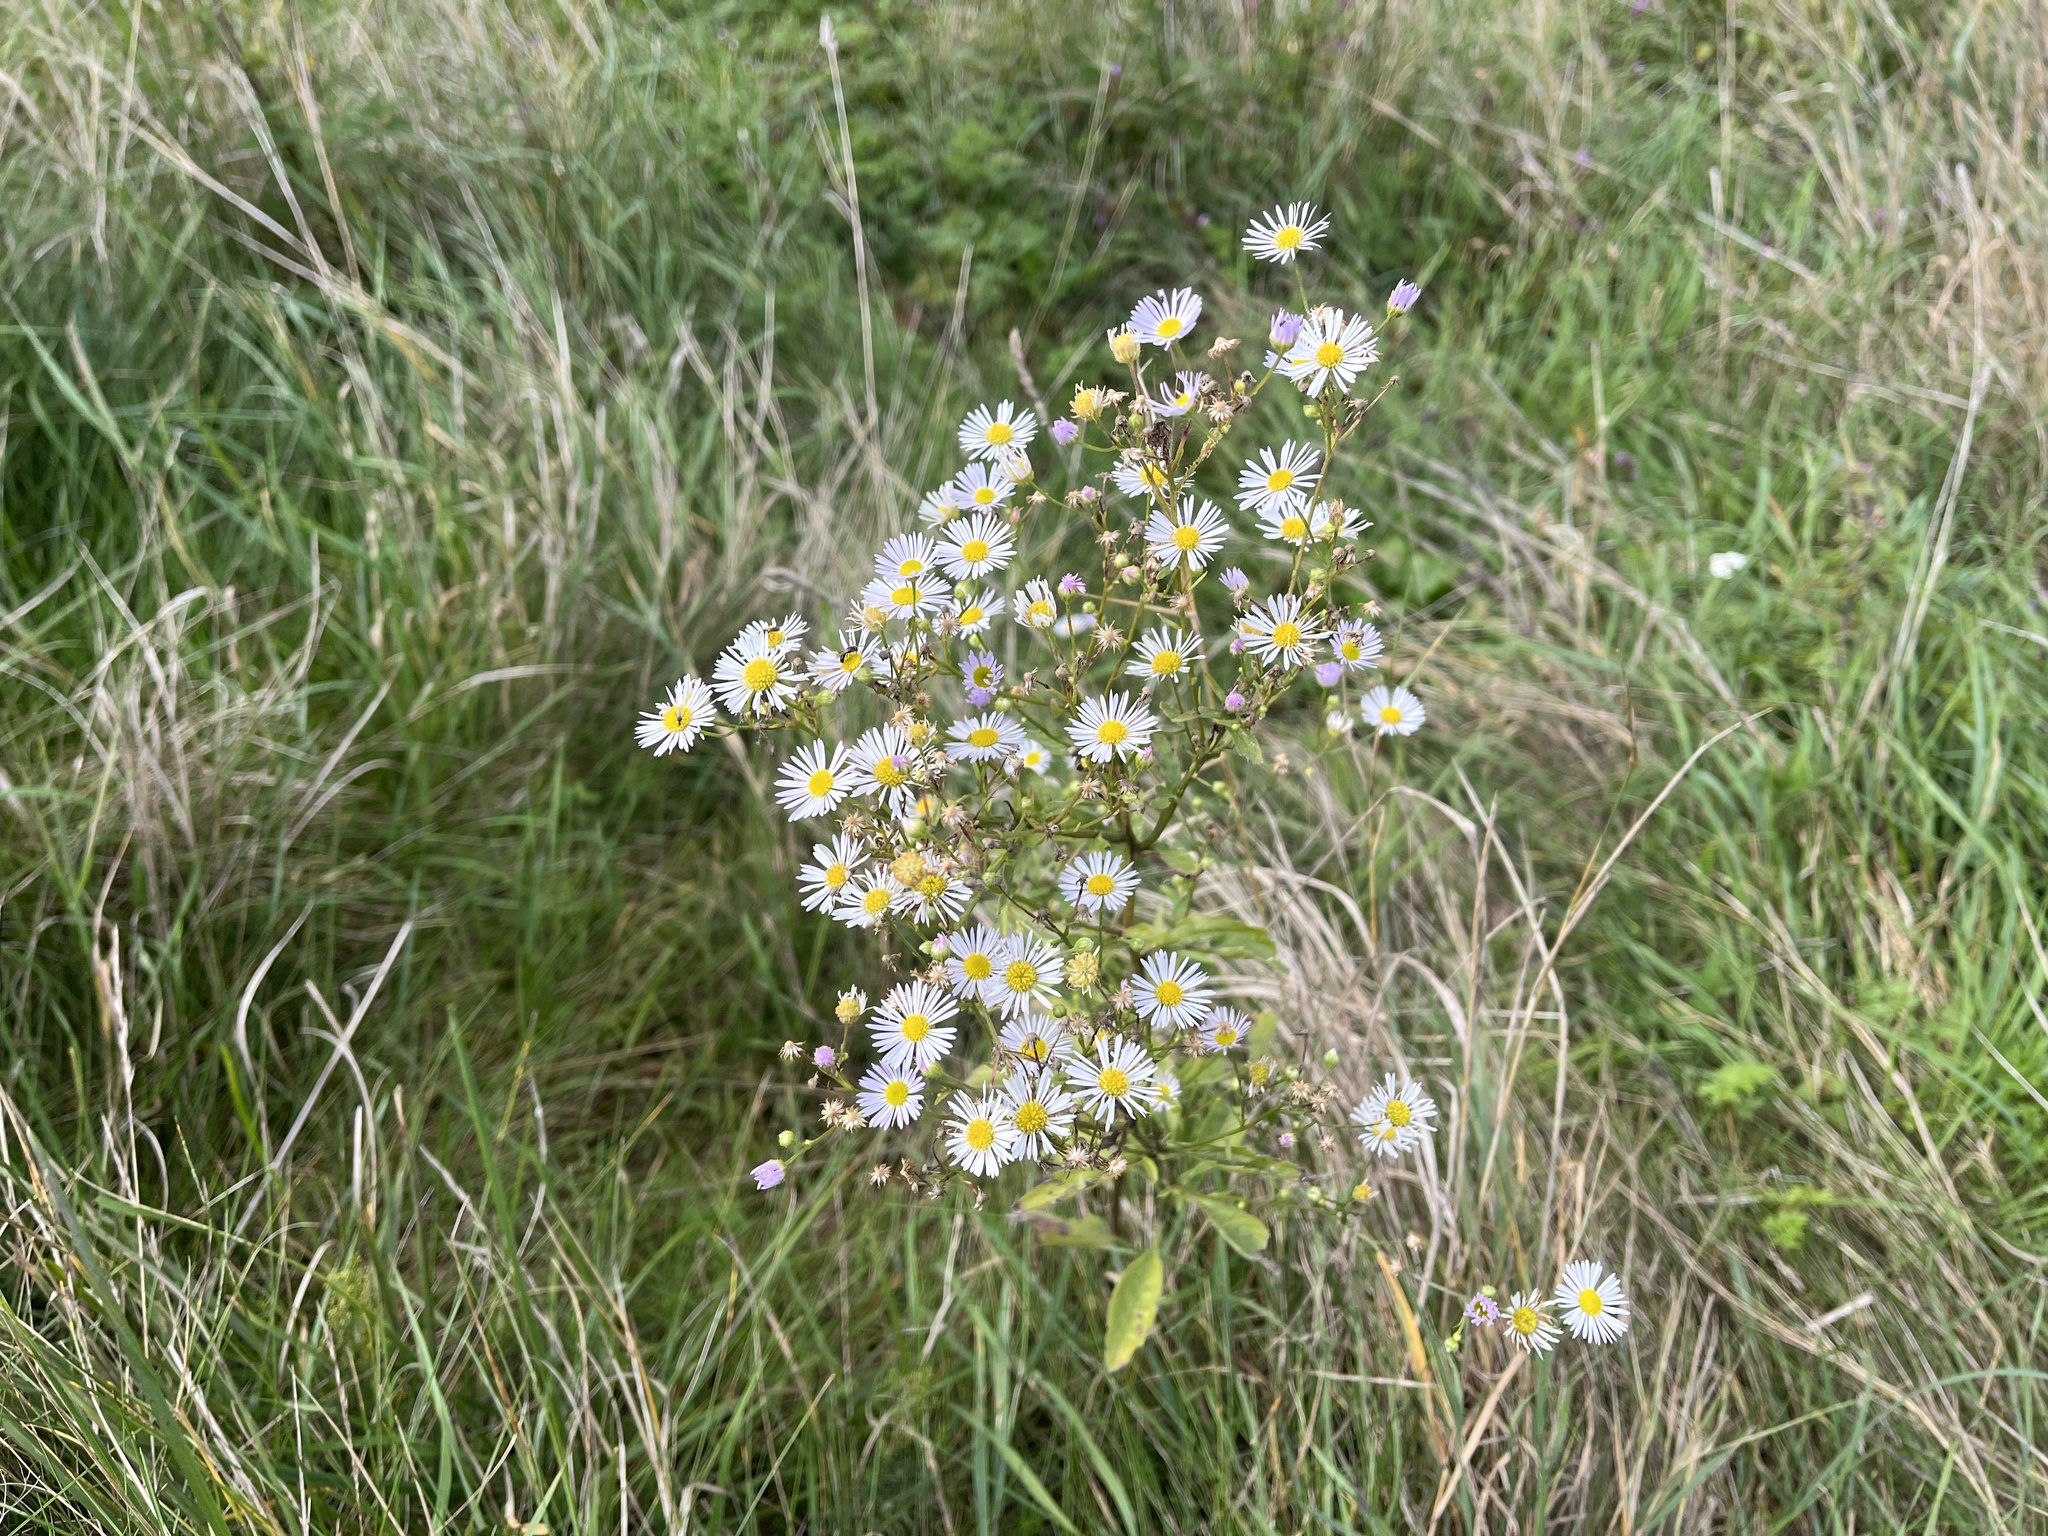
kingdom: Plantae
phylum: Tracheophyta
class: Magnoliopsida
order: Asterales
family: Asteraceae
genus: Erigeron
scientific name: Erigeron annuus
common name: Tall fleabane
